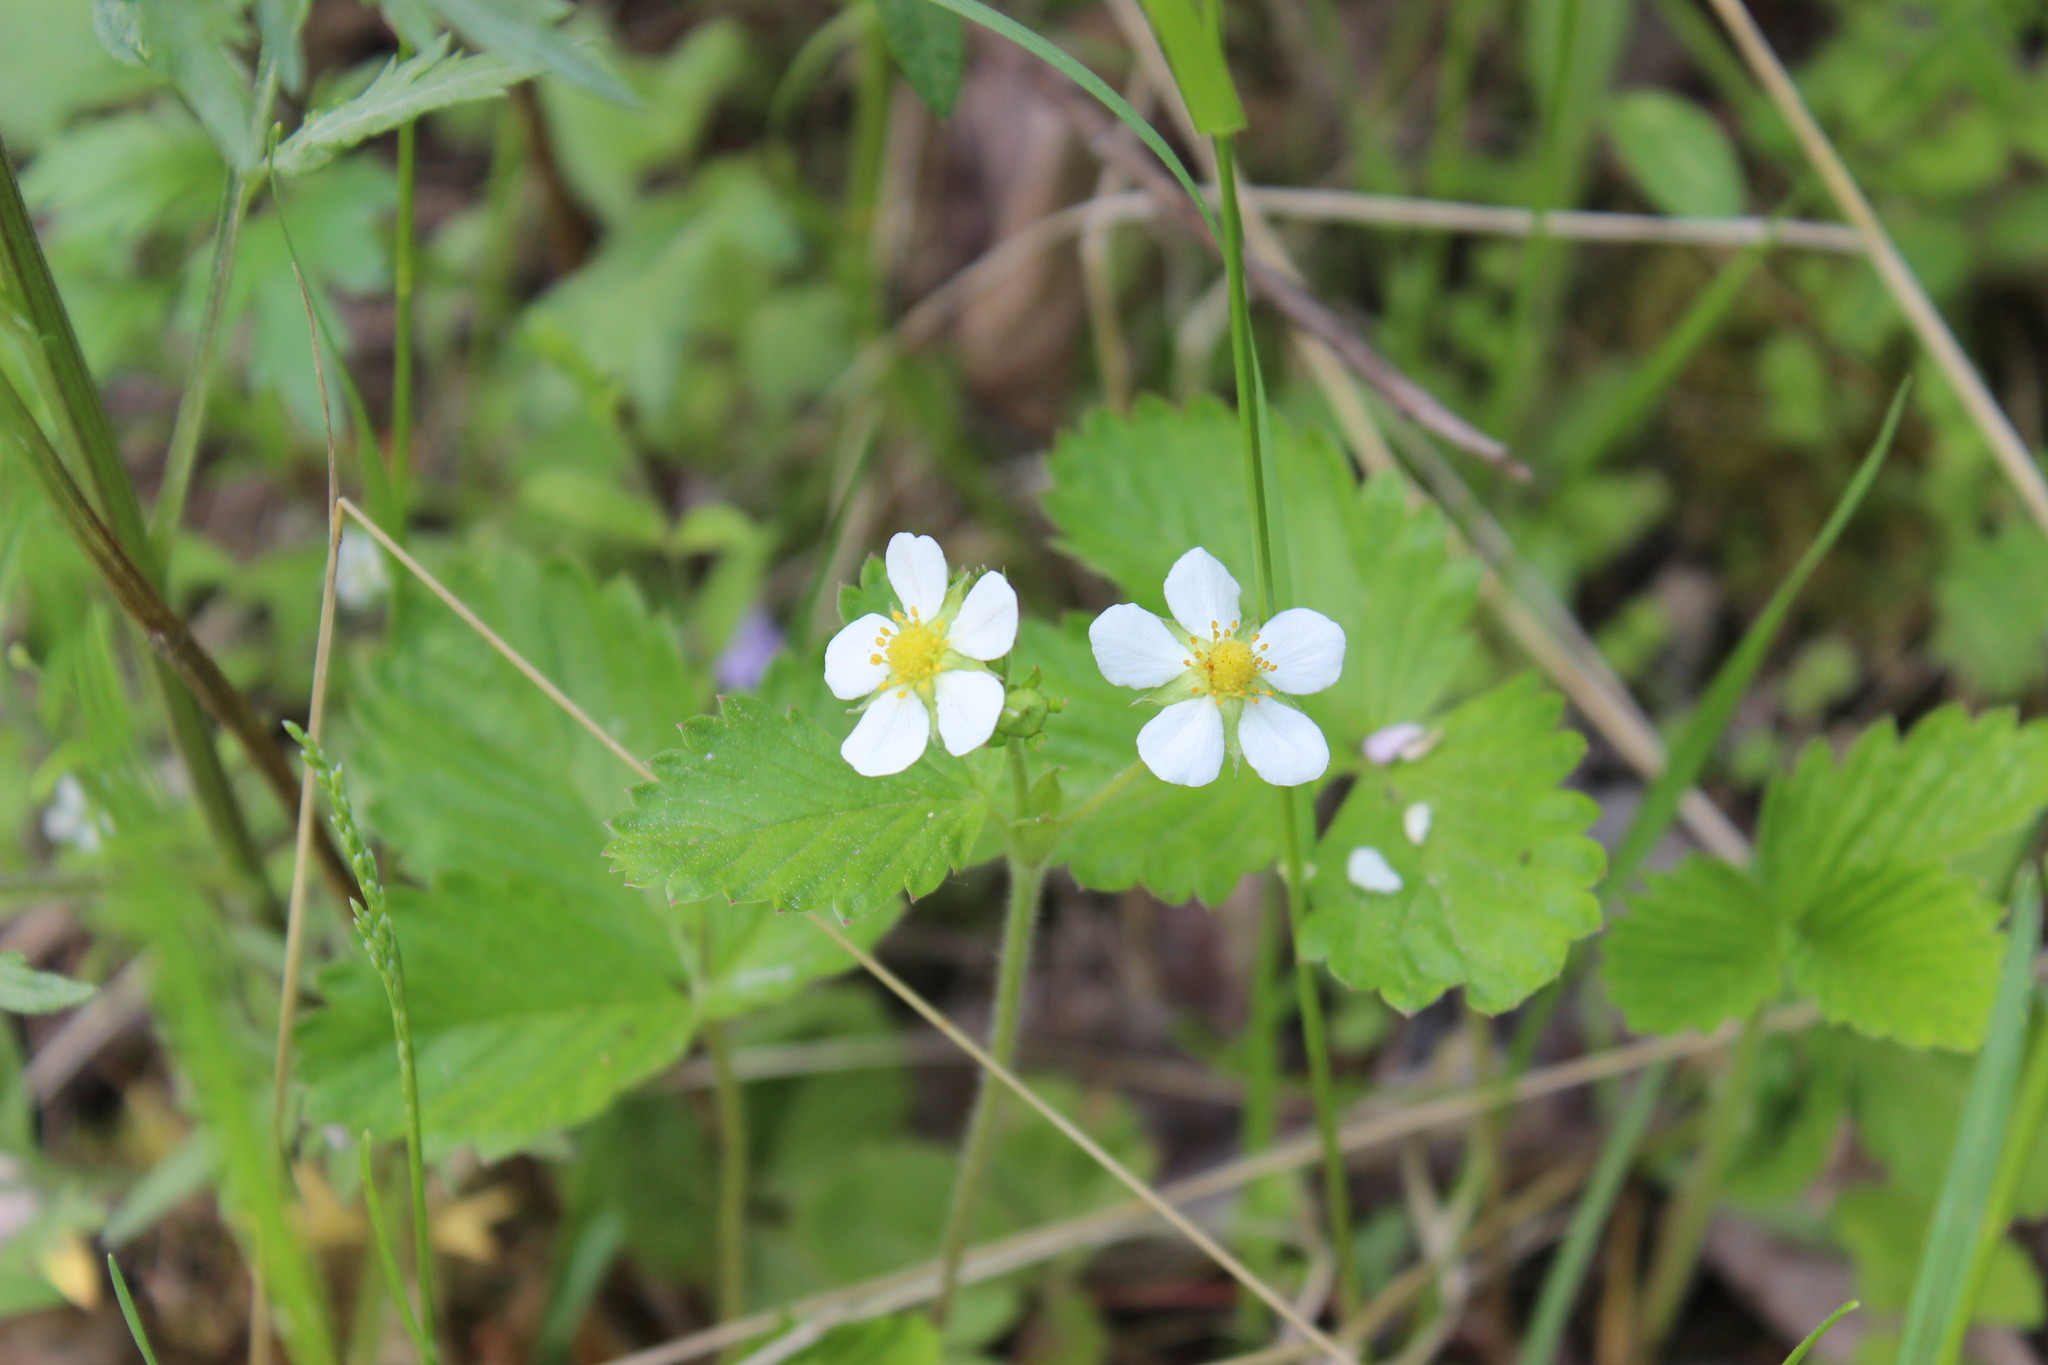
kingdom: Plantae
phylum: Tracheophyta
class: Magnoliopsida
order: Rosales
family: Rosaceae
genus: Fragaria
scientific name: Fragaria vesca
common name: Wild strawberry
